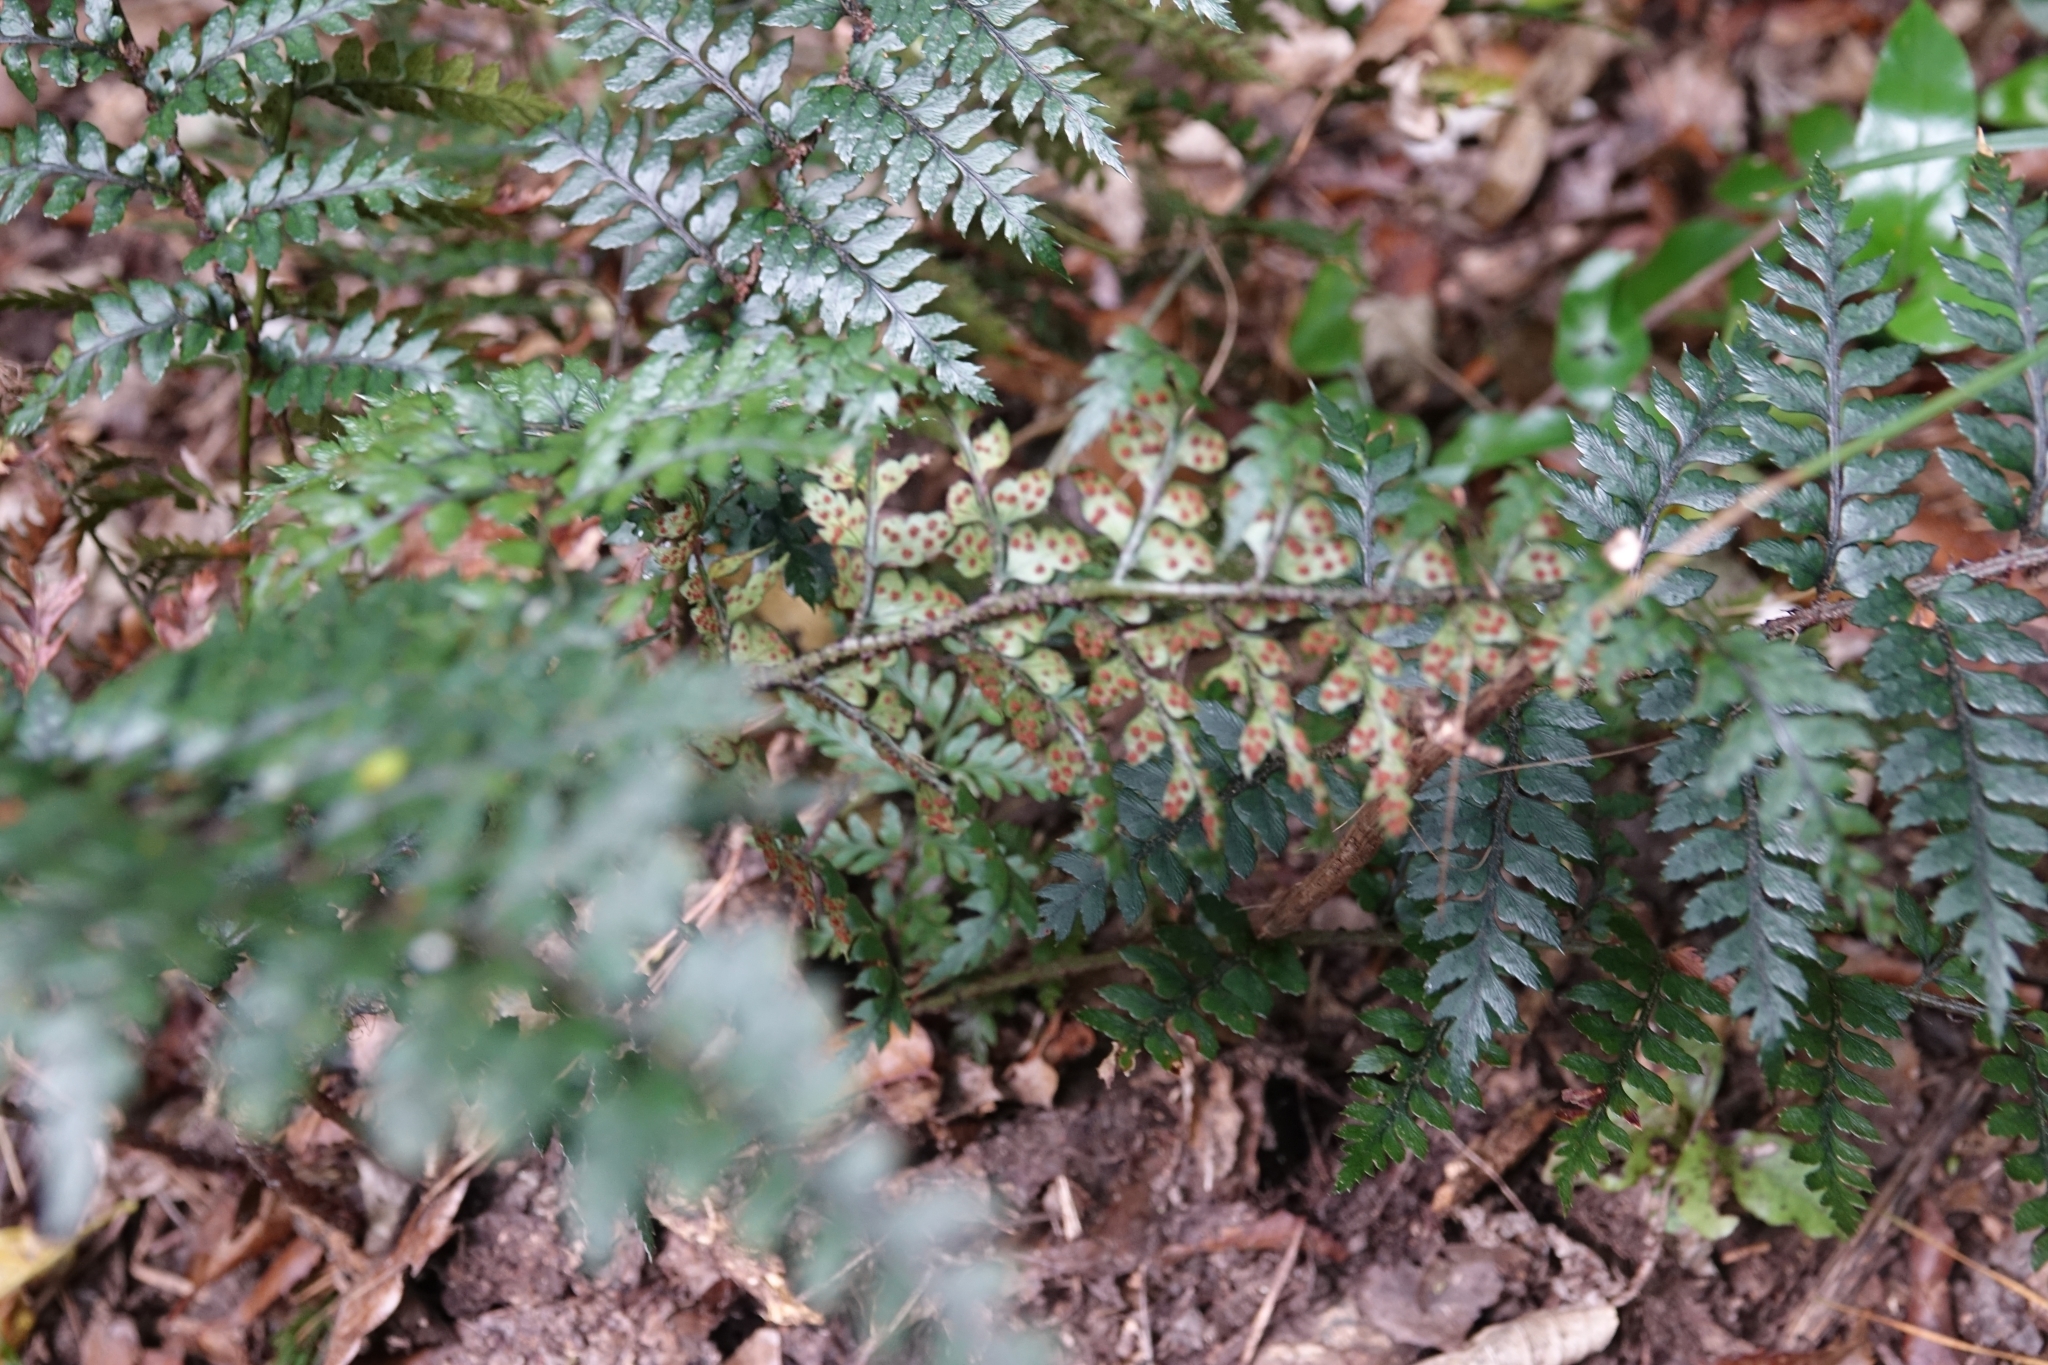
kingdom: Plantae
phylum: Tracheophyta
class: Polypodiopsida
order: Polypodiales
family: Dryopteridaceae
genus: Polystichum
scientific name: Polystichum neozelandicum
